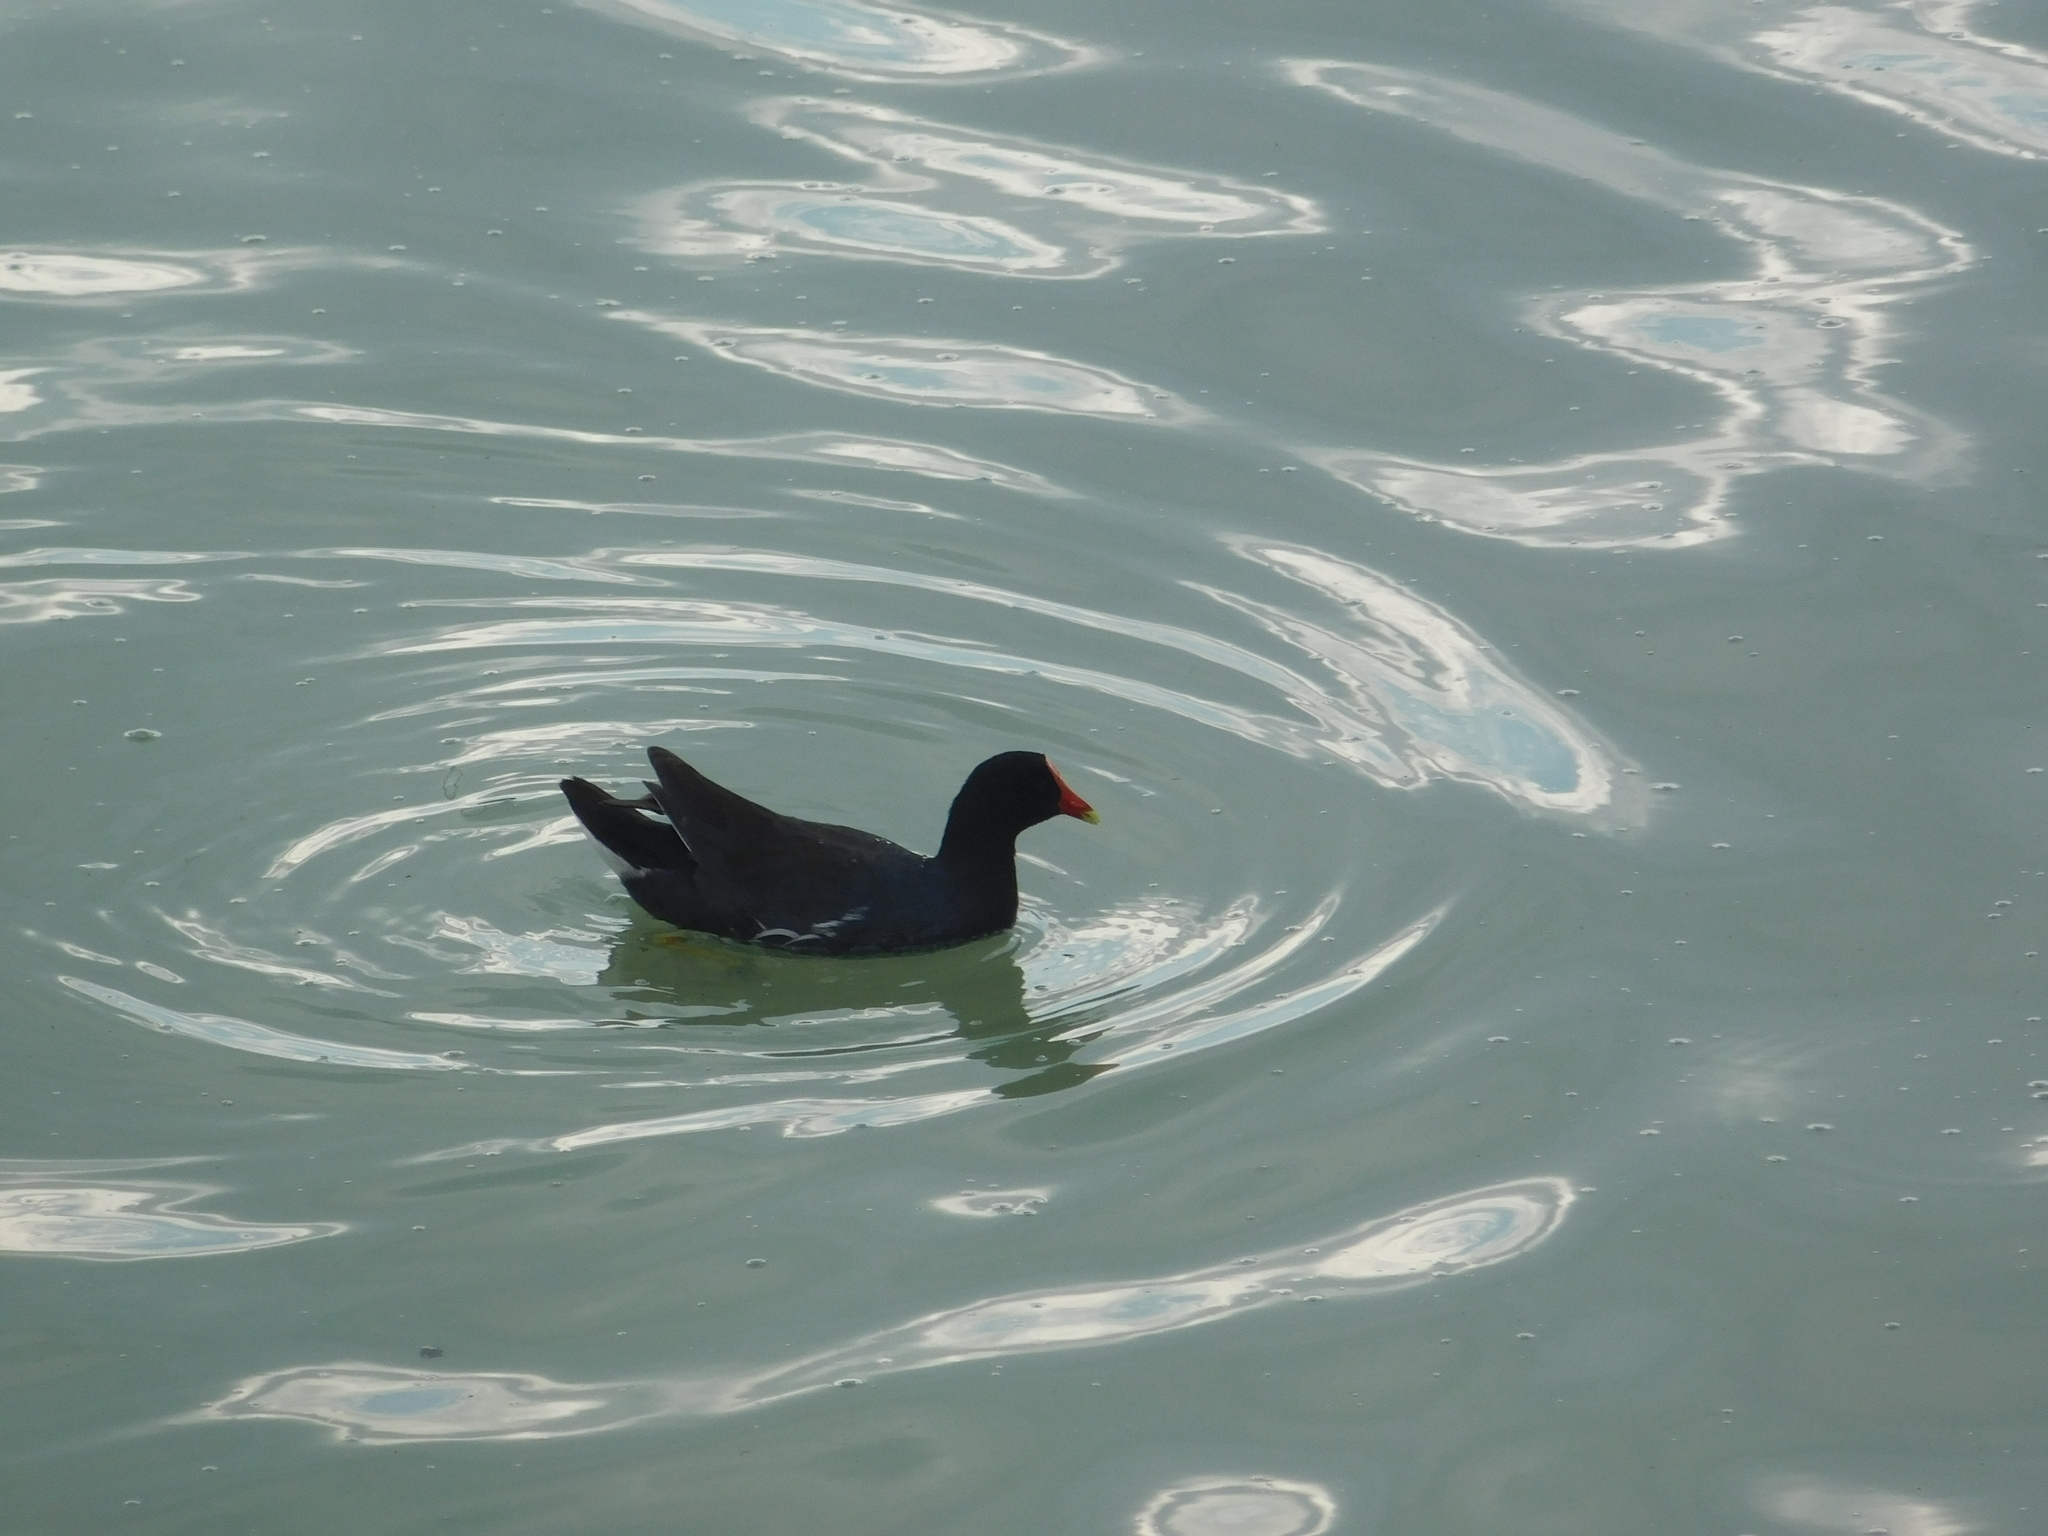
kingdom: Animalia
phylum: Chordata
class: Aves
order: Gruiformes
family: Rallidae
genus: Gallinula
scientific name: Gallinula chloropus
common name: Common moorhen
